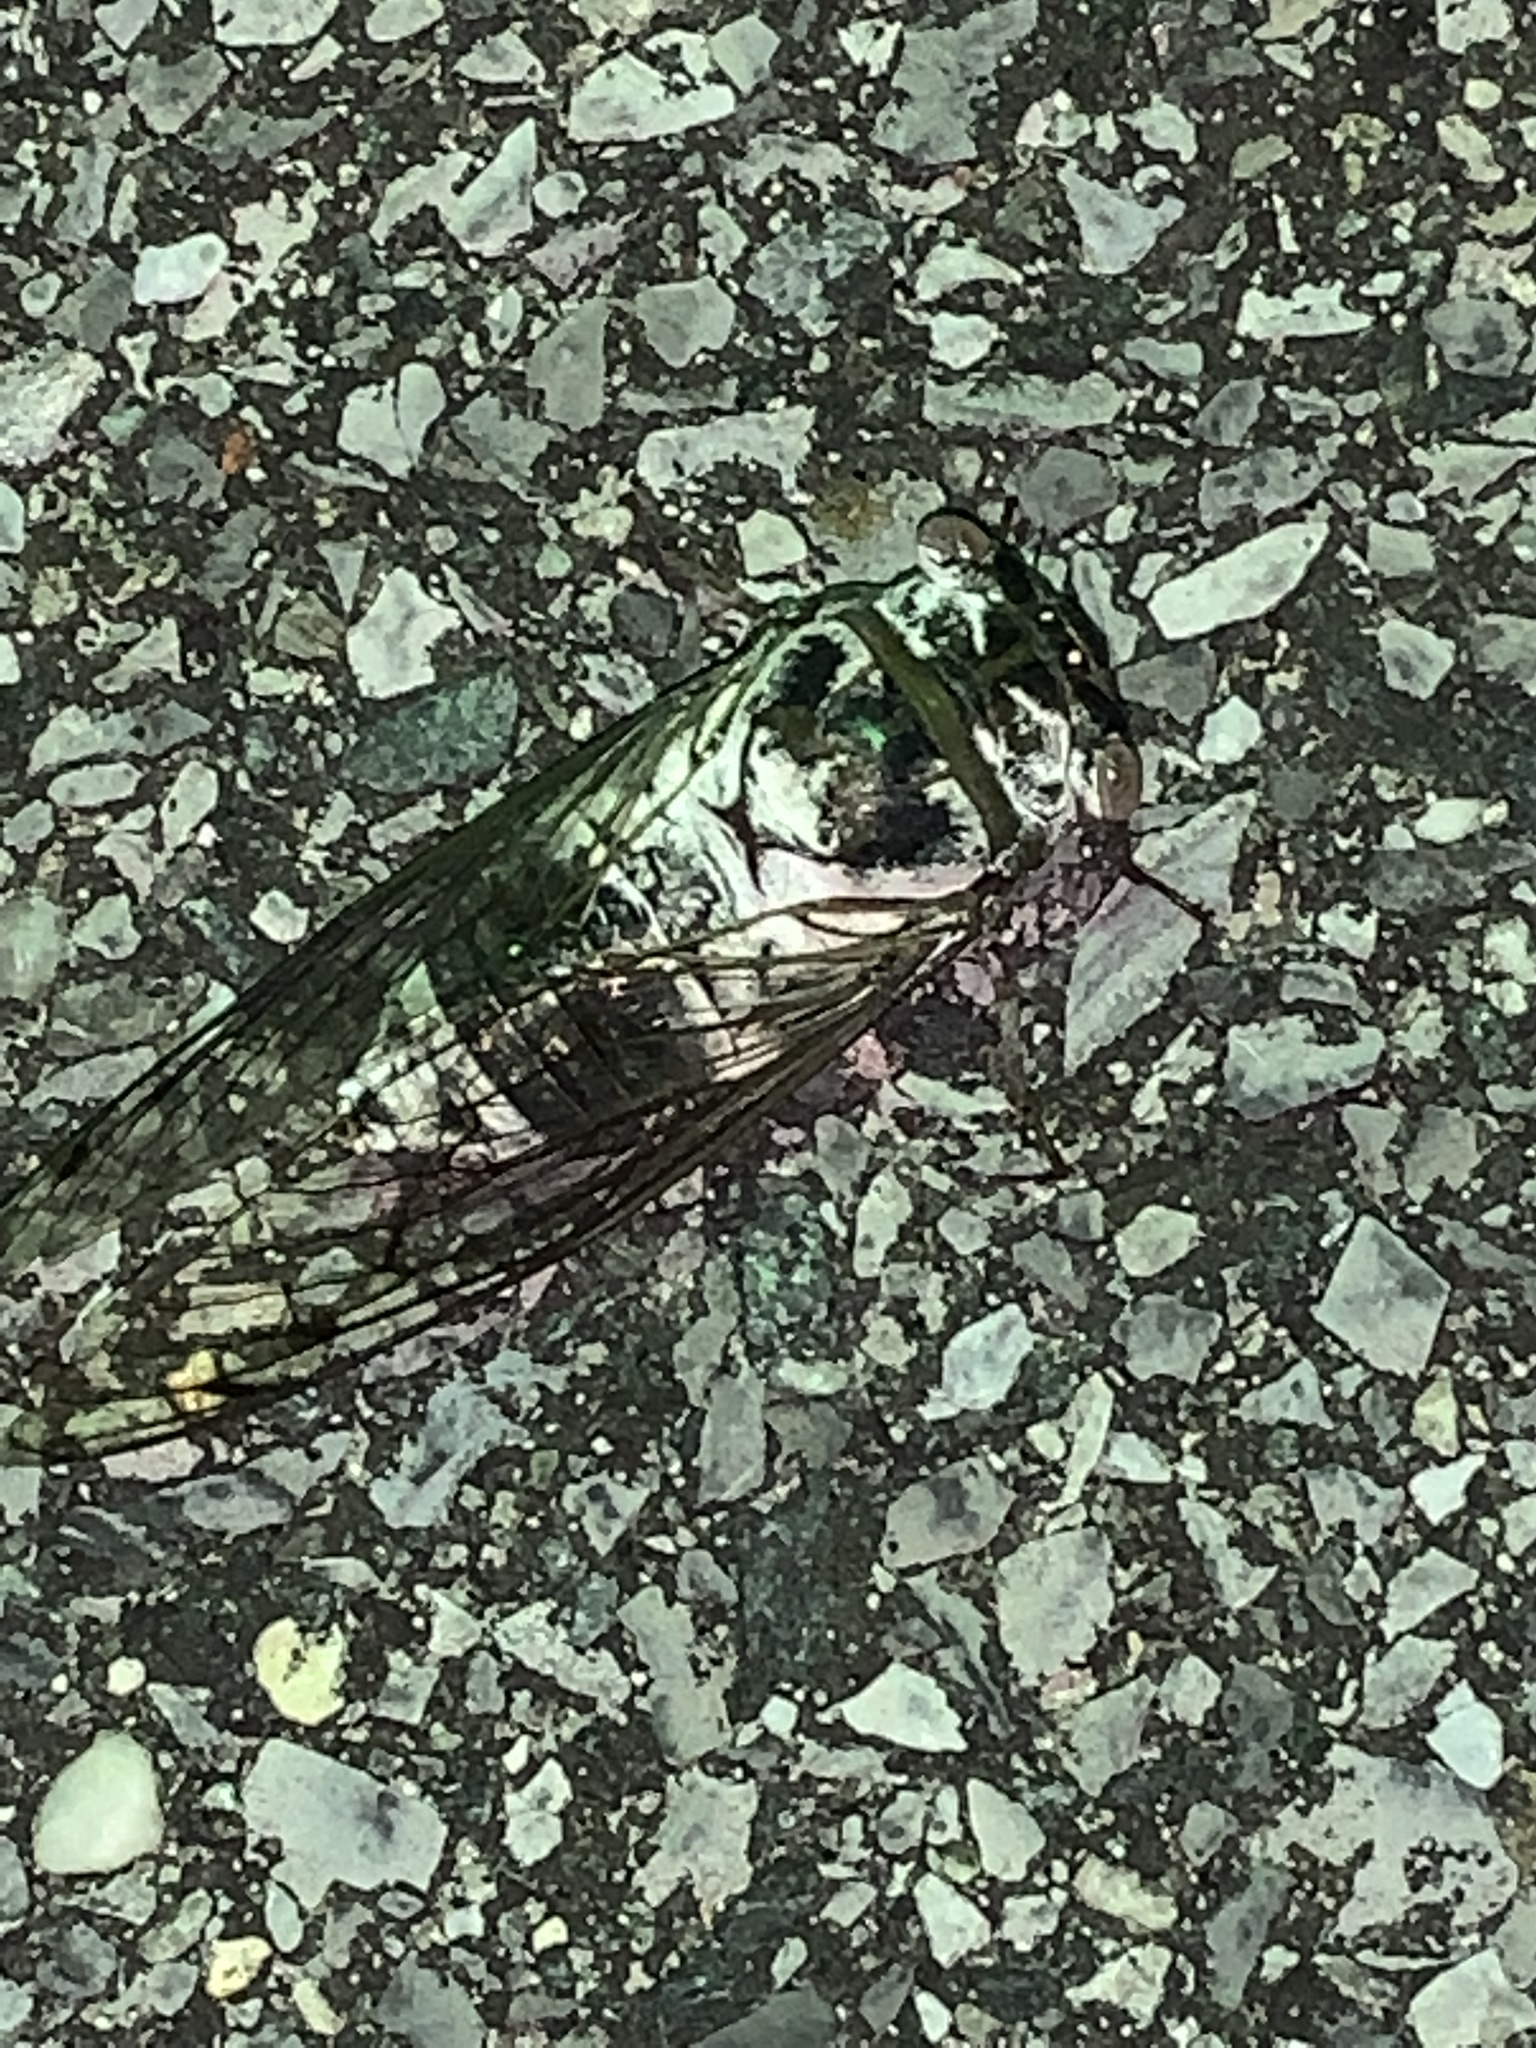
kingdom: Animalia
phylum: Arthropoda
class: Insecta
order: Hemiptera
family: Cicadidae
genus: Diceroprocta
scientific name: Diceroprocta grossa
